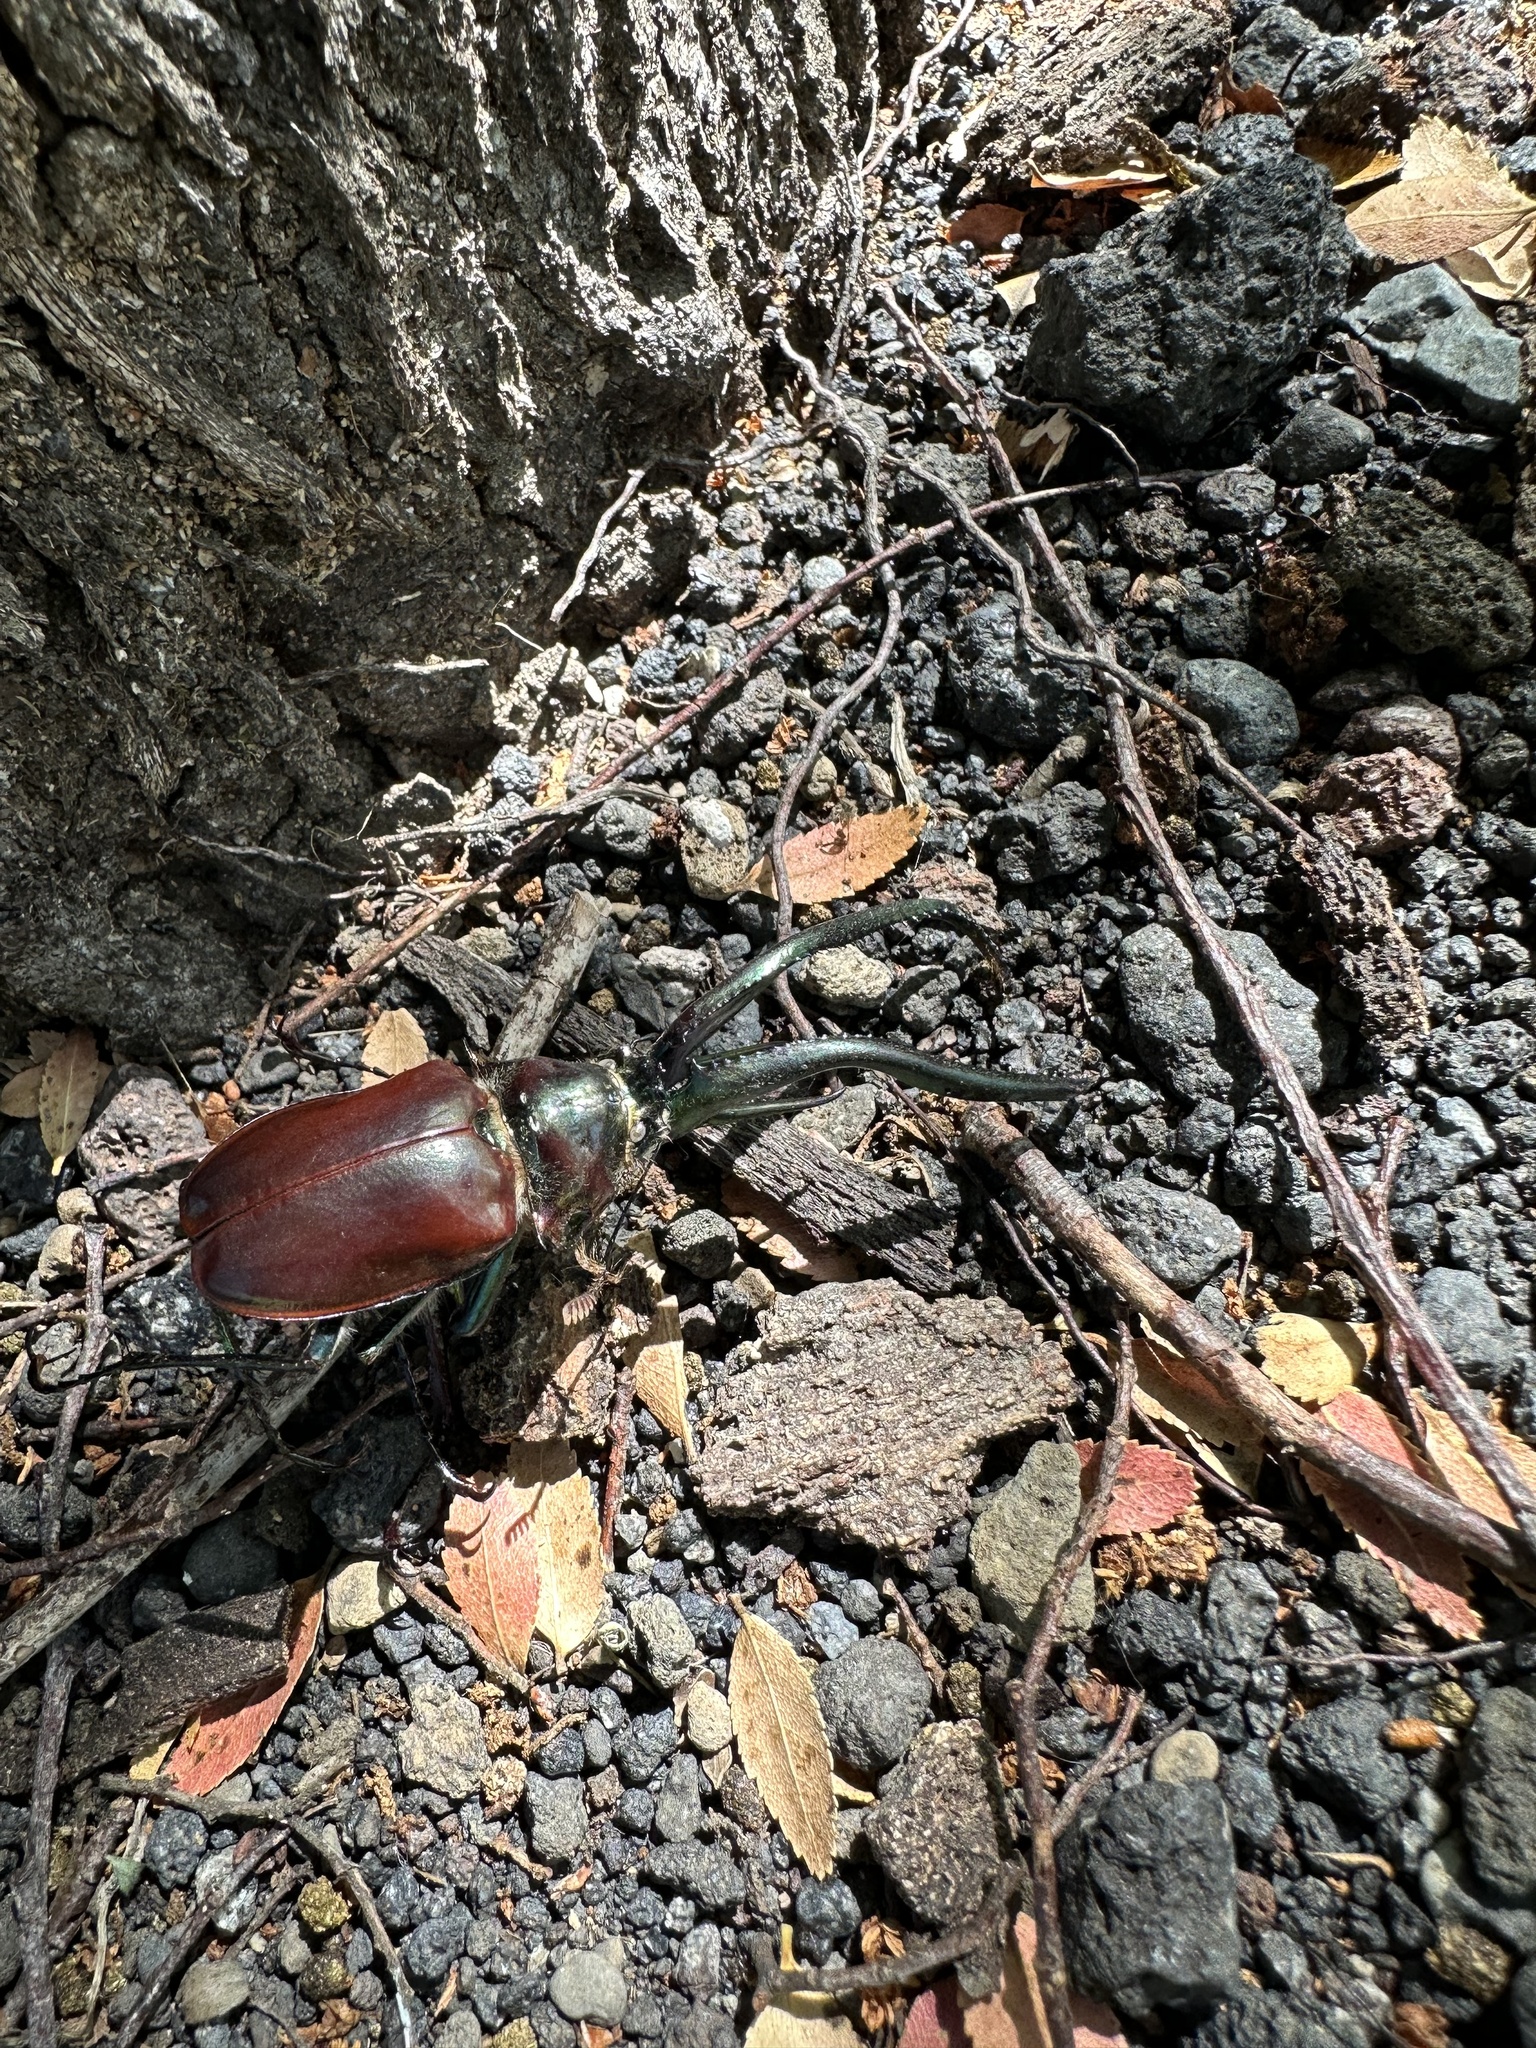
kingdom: Animalia
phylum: Arthropoda
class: Insecta
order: Coleoptera
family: Lucanidae
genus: Chiasognathus
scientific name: Chiasognathus grantii
